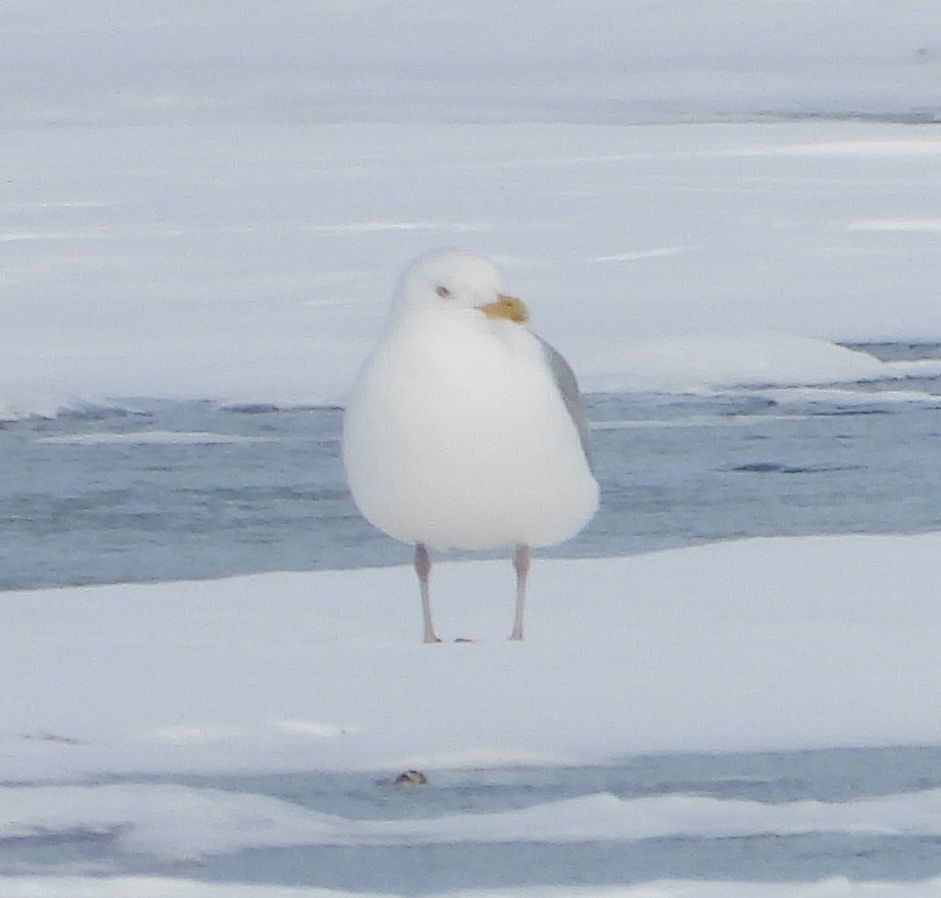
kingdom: Animalia
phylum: Chordata
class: Aves
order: Charadriiformes
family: Laridae
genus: Larus
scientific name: Larus argentatus
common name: Herring gull
